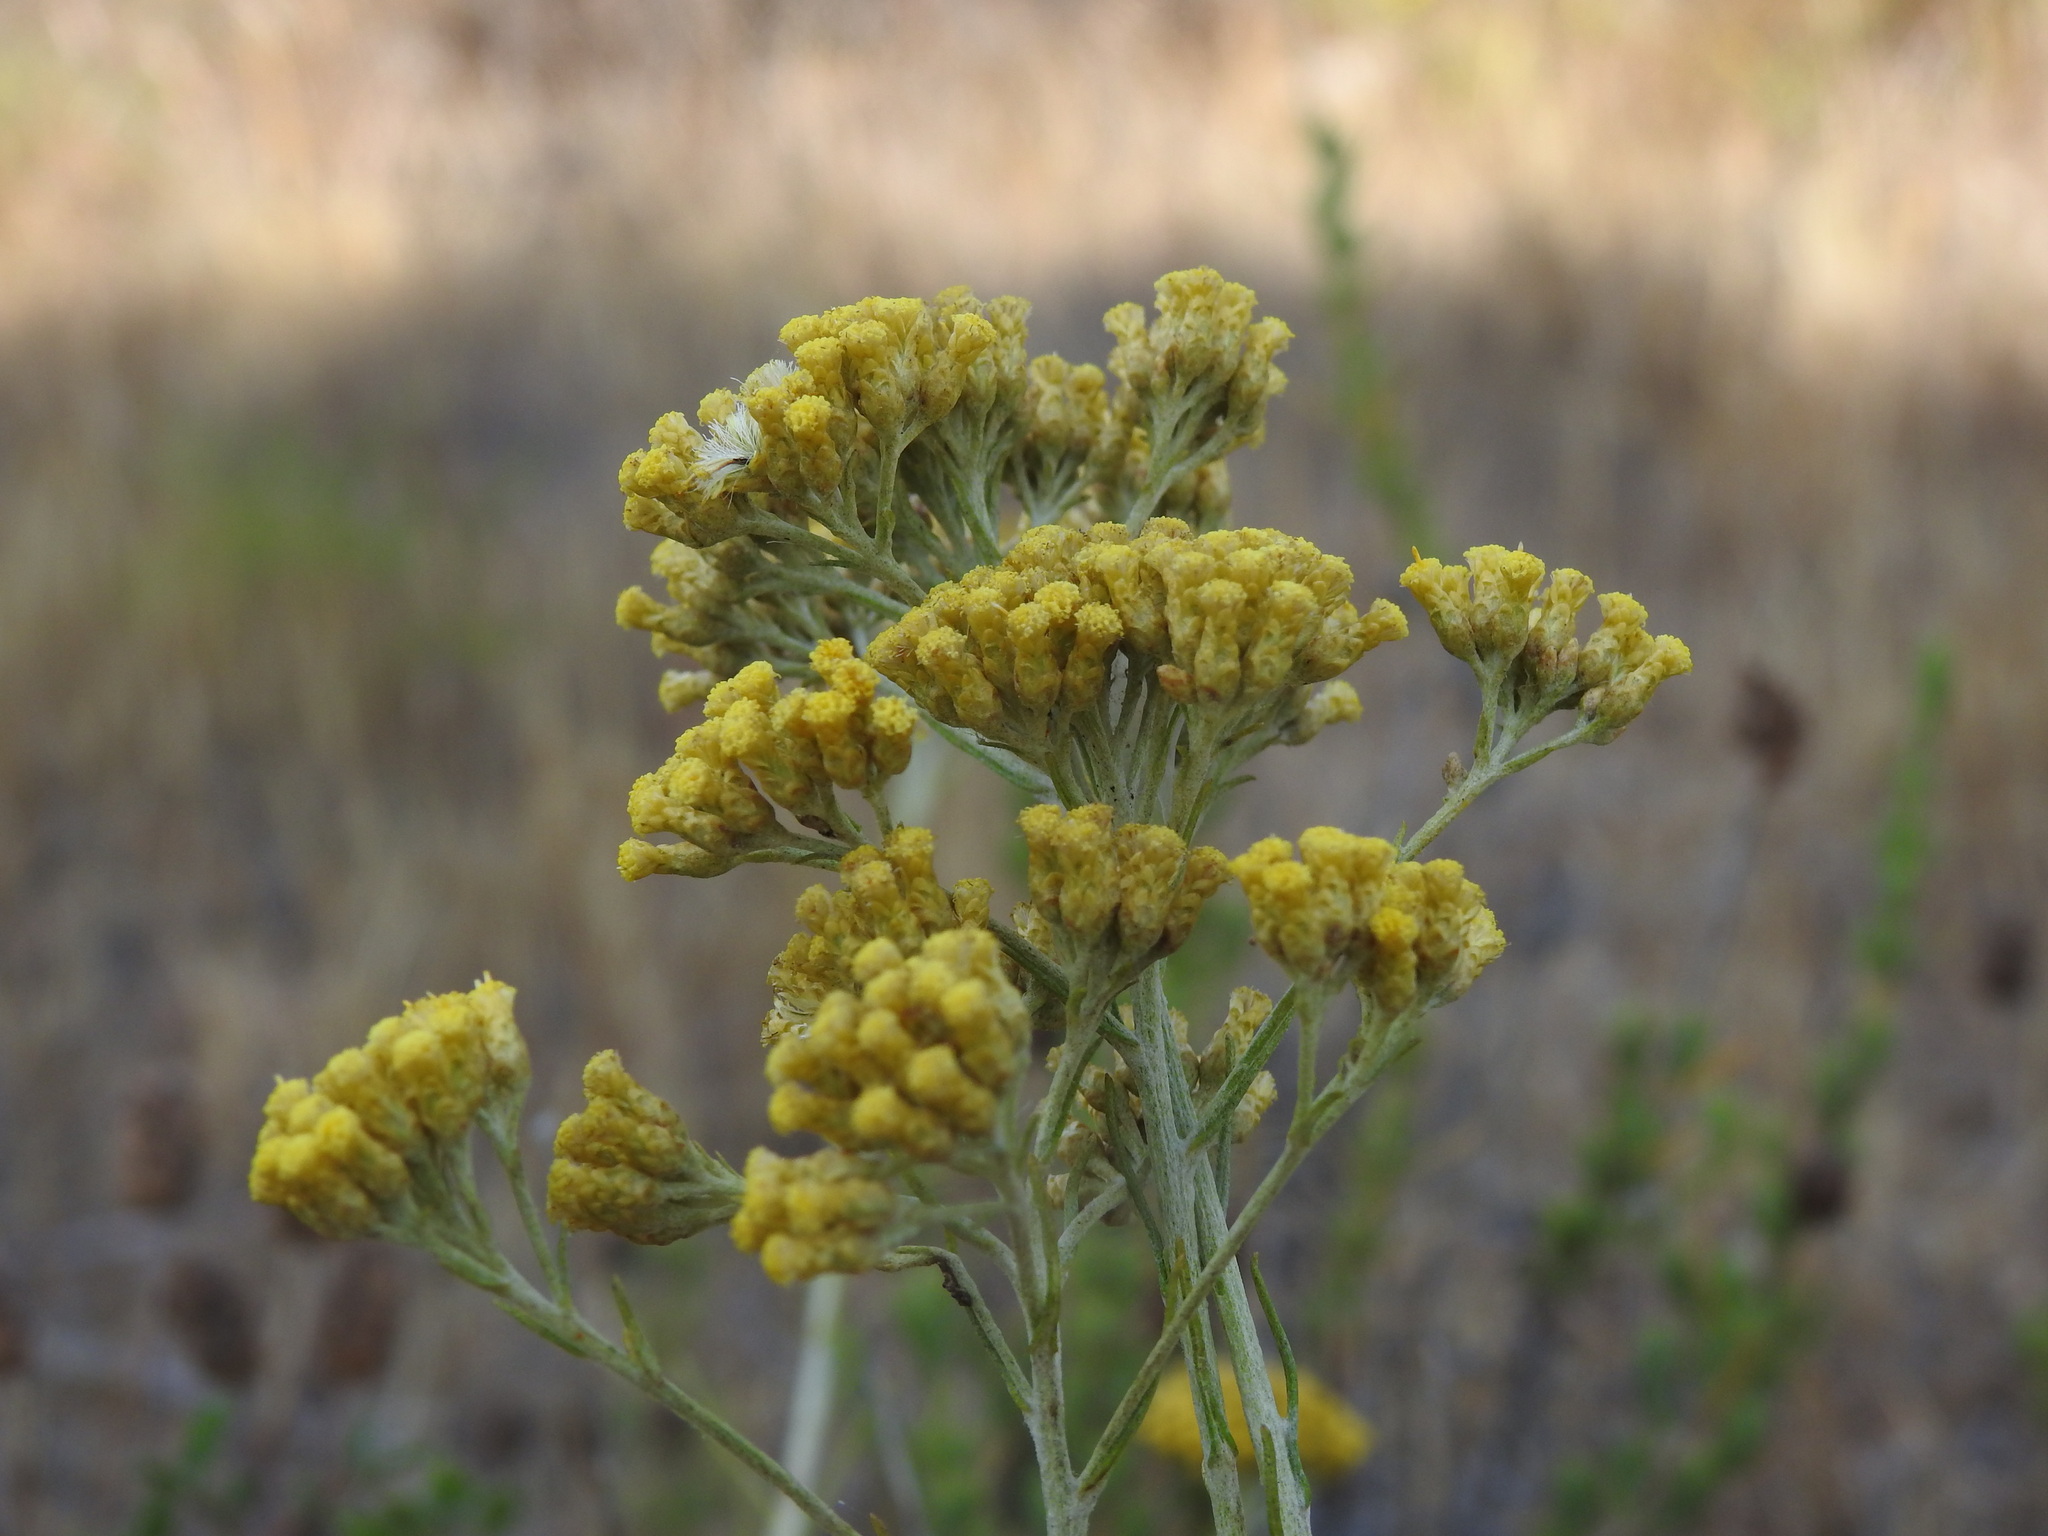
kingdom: Plantae
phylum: Tracheophyta
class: Magnoliopsida
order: Asterales
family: Asteraceae
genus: Helichrysum
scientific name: Helichrysum serotinum
